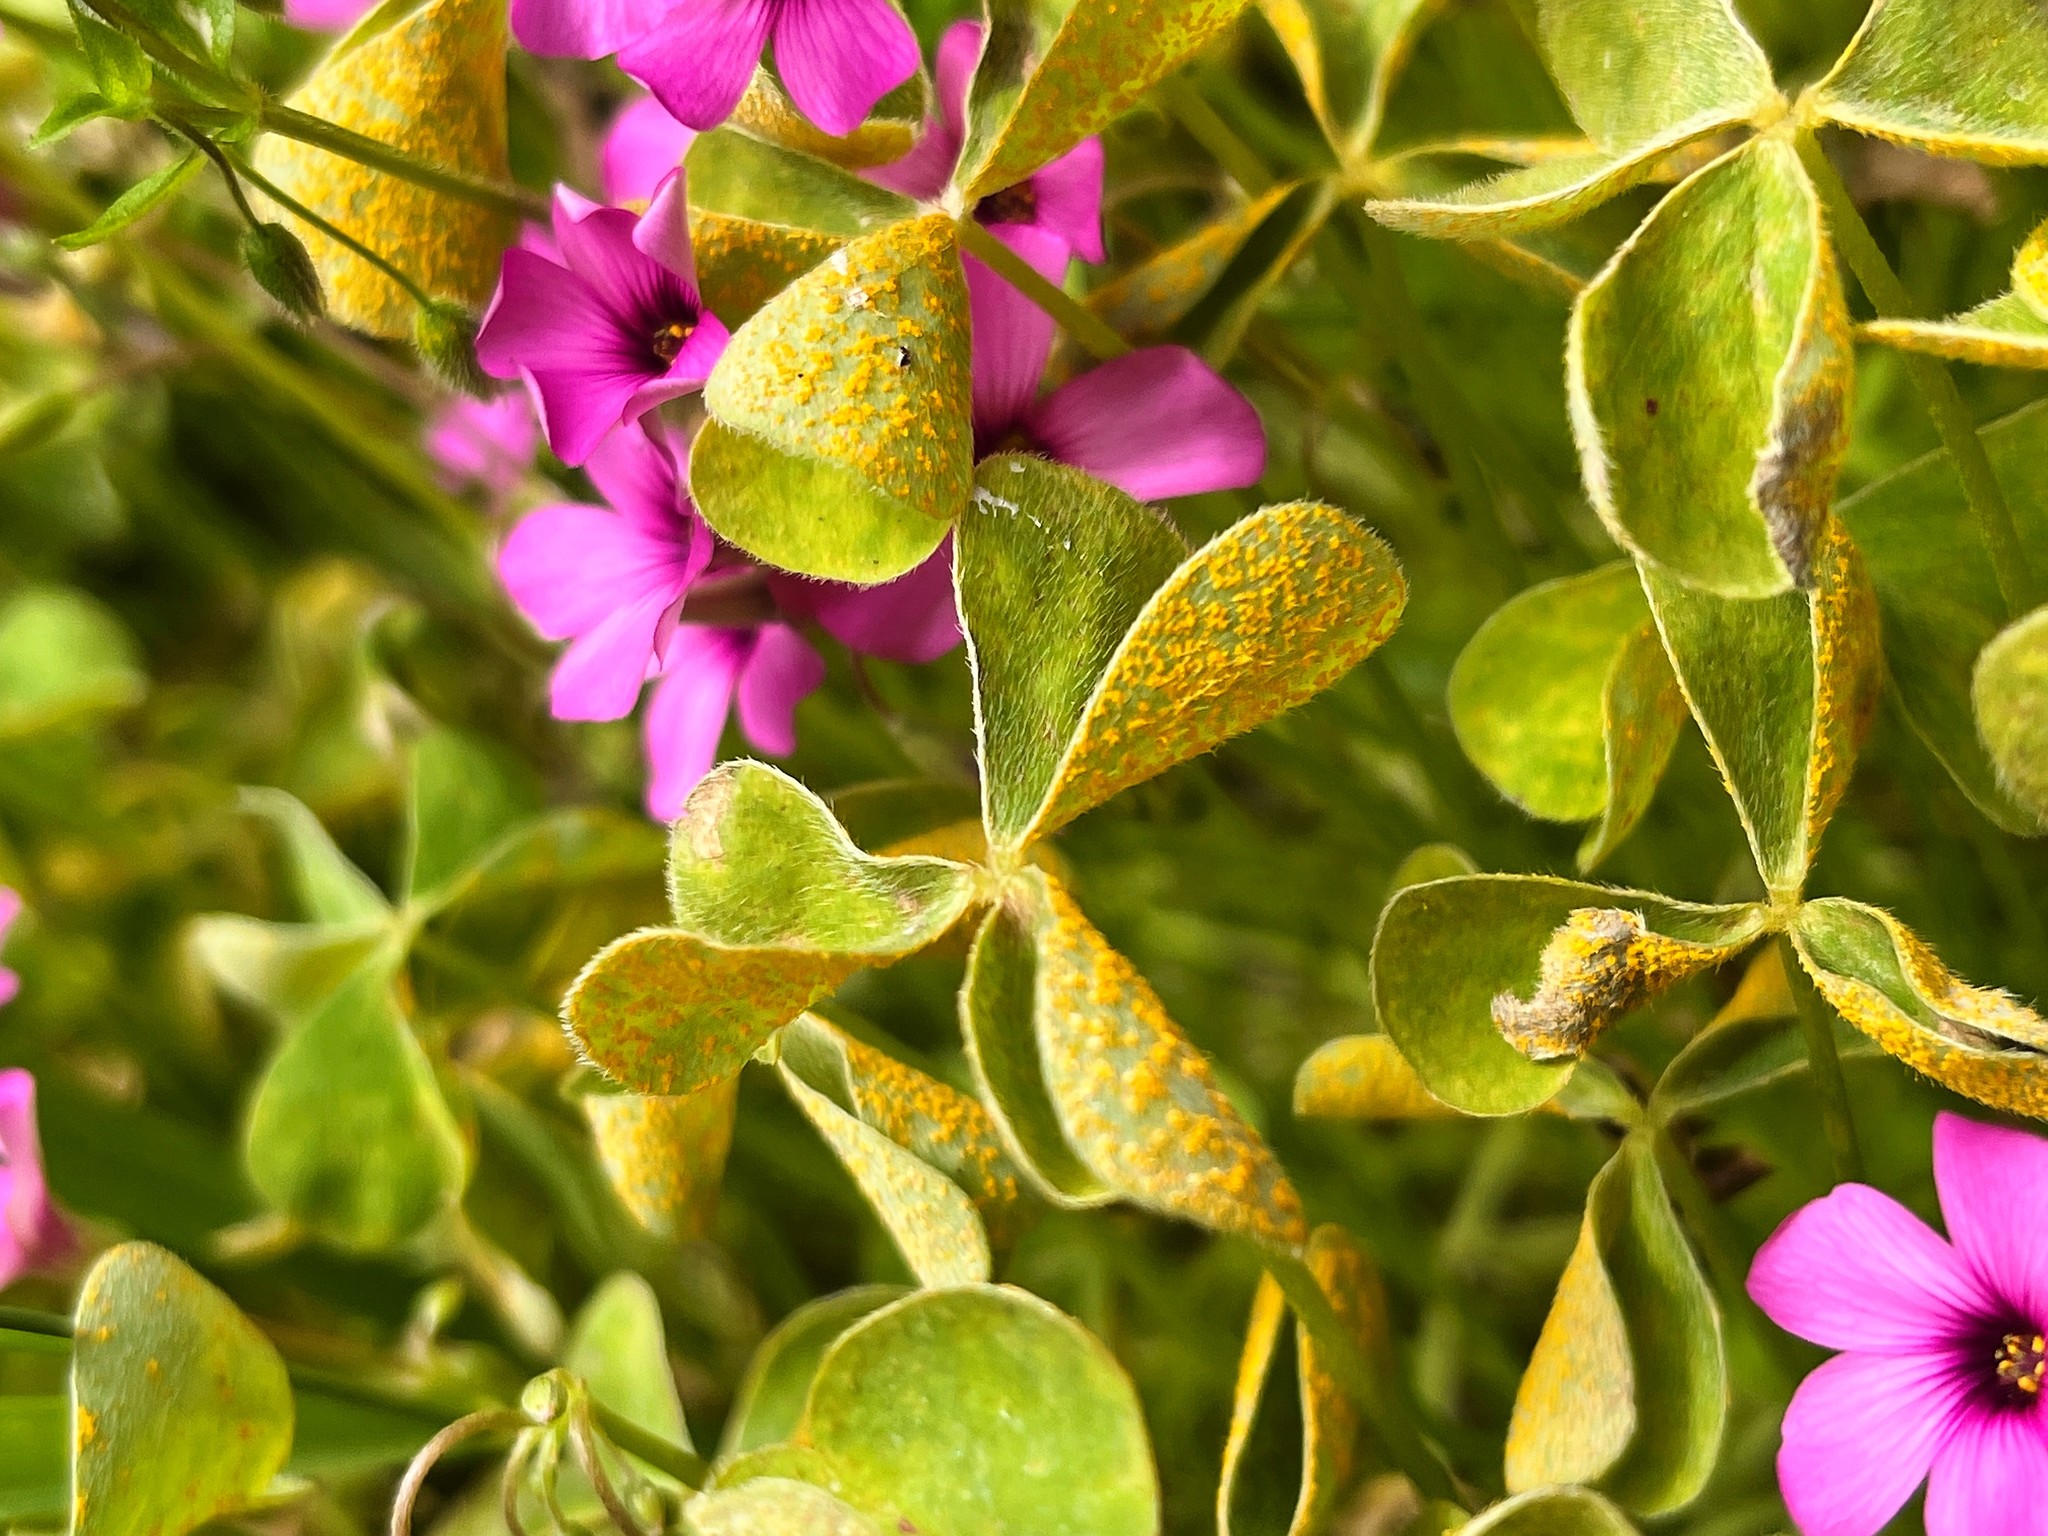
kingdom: Fungi
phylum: Basidiomycota
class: Pucciniomycetes
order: Pucciniales
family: Pucciniaceae
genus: Puccinia
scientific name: Puccinia oxalidis
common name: Oxalis rust
